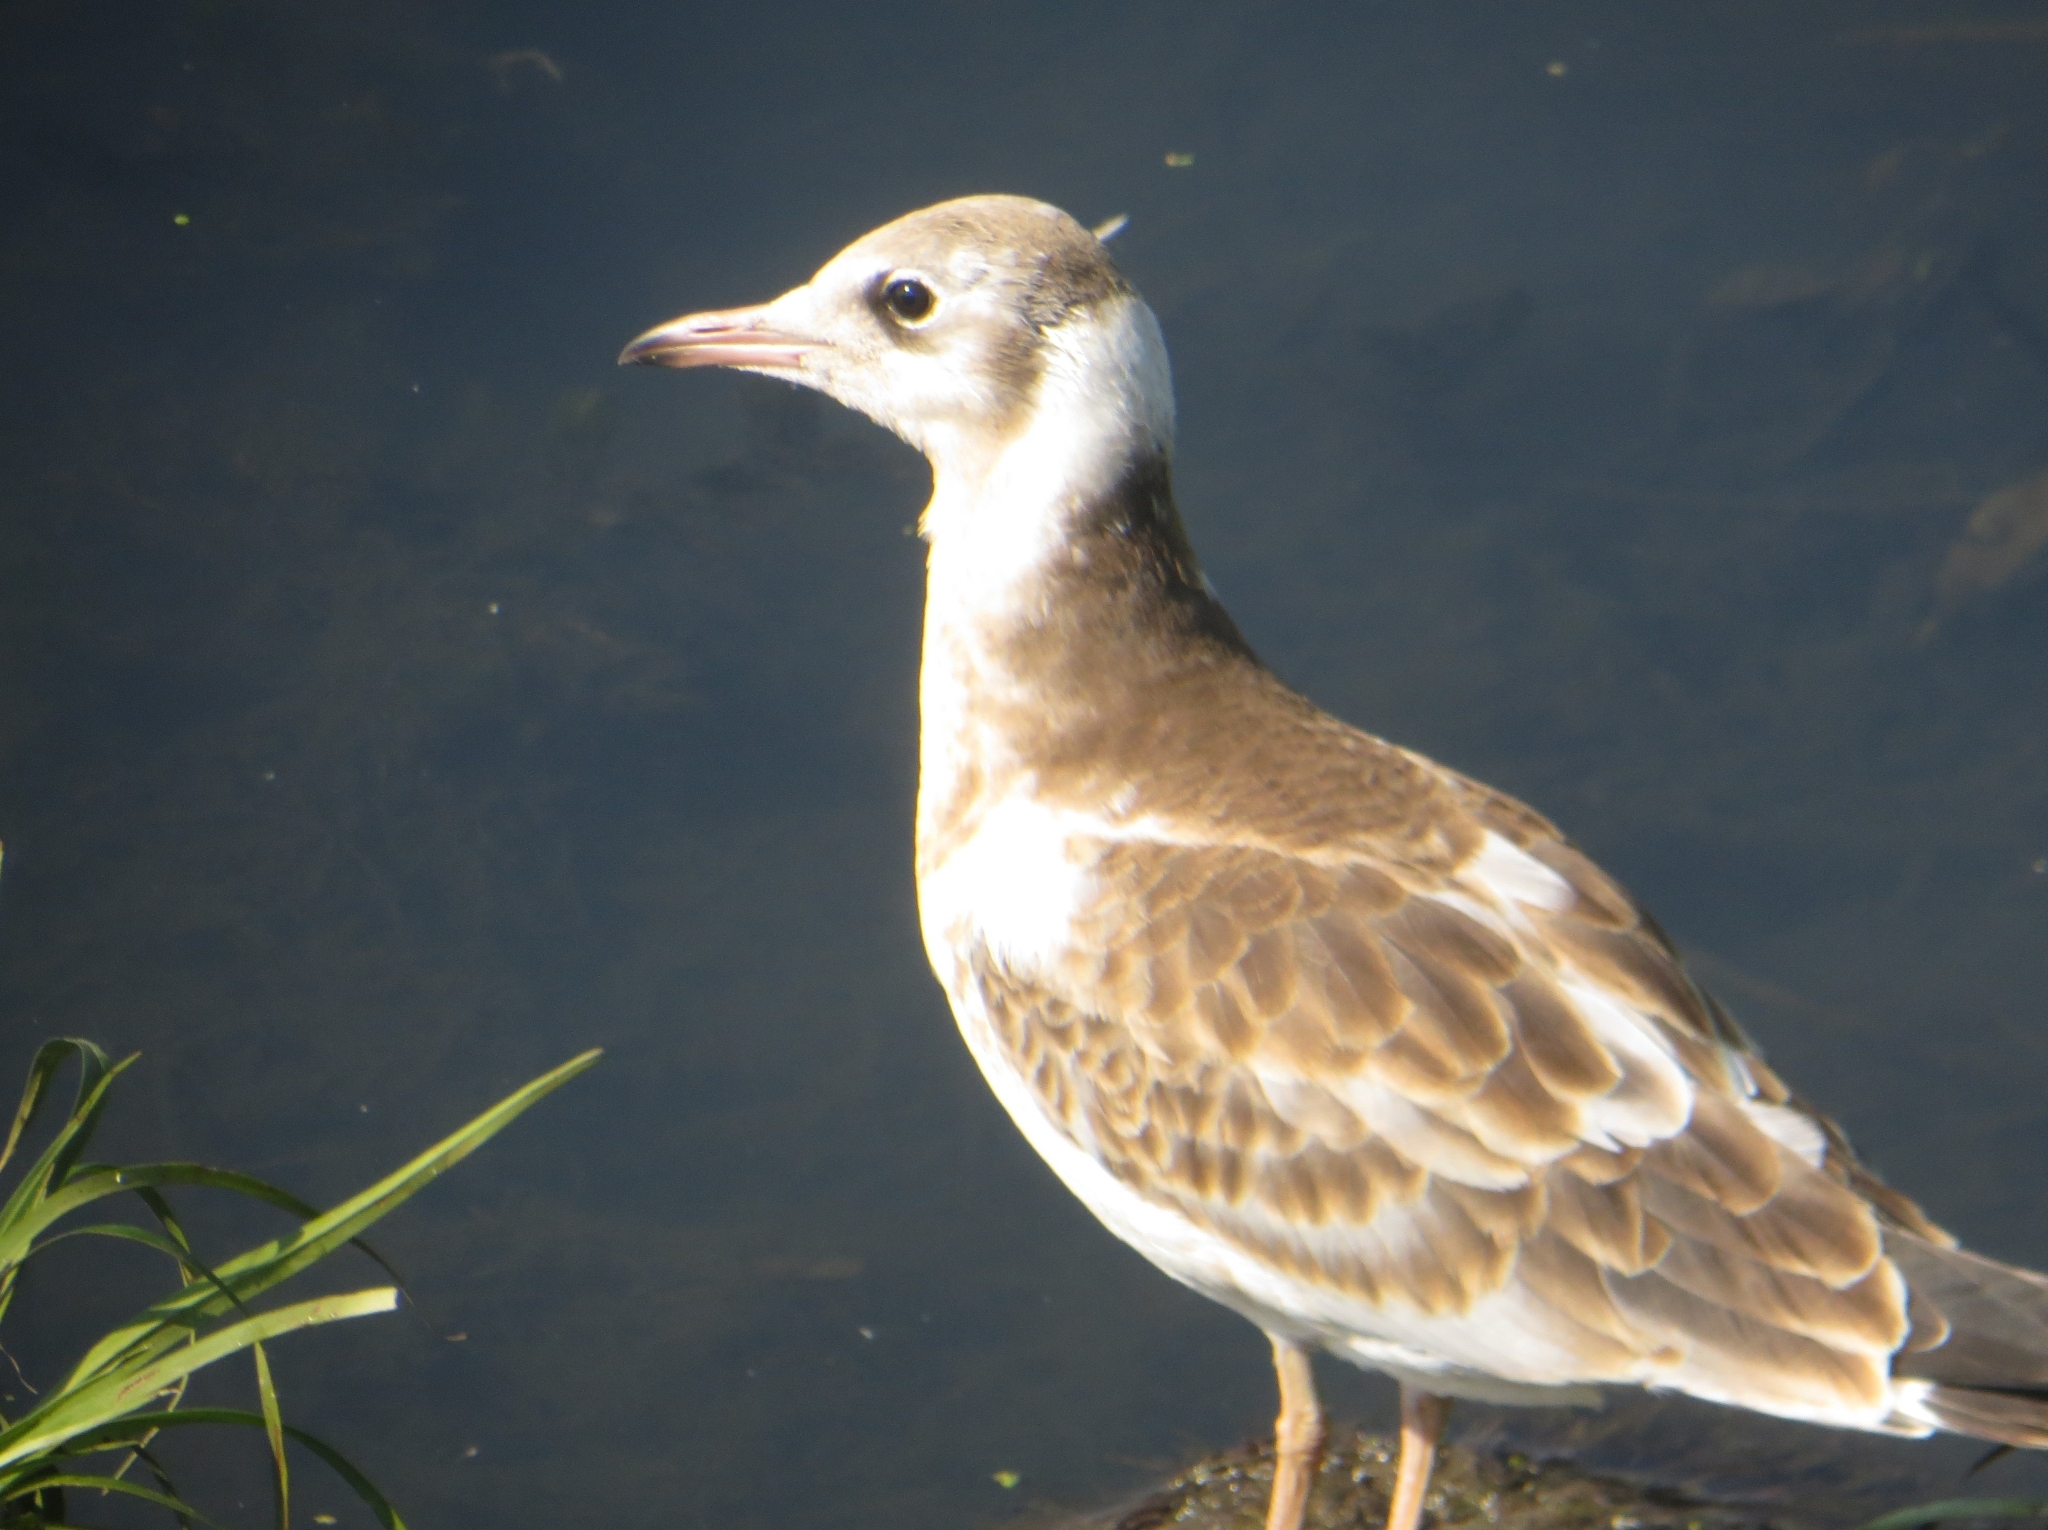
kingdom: Animalia
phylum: Chordata
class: Aves
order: Charadriiformes
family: Laridae
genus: Chroicocephalus
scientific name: Chroicocephalus ridibundus
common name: Black-headed gull
